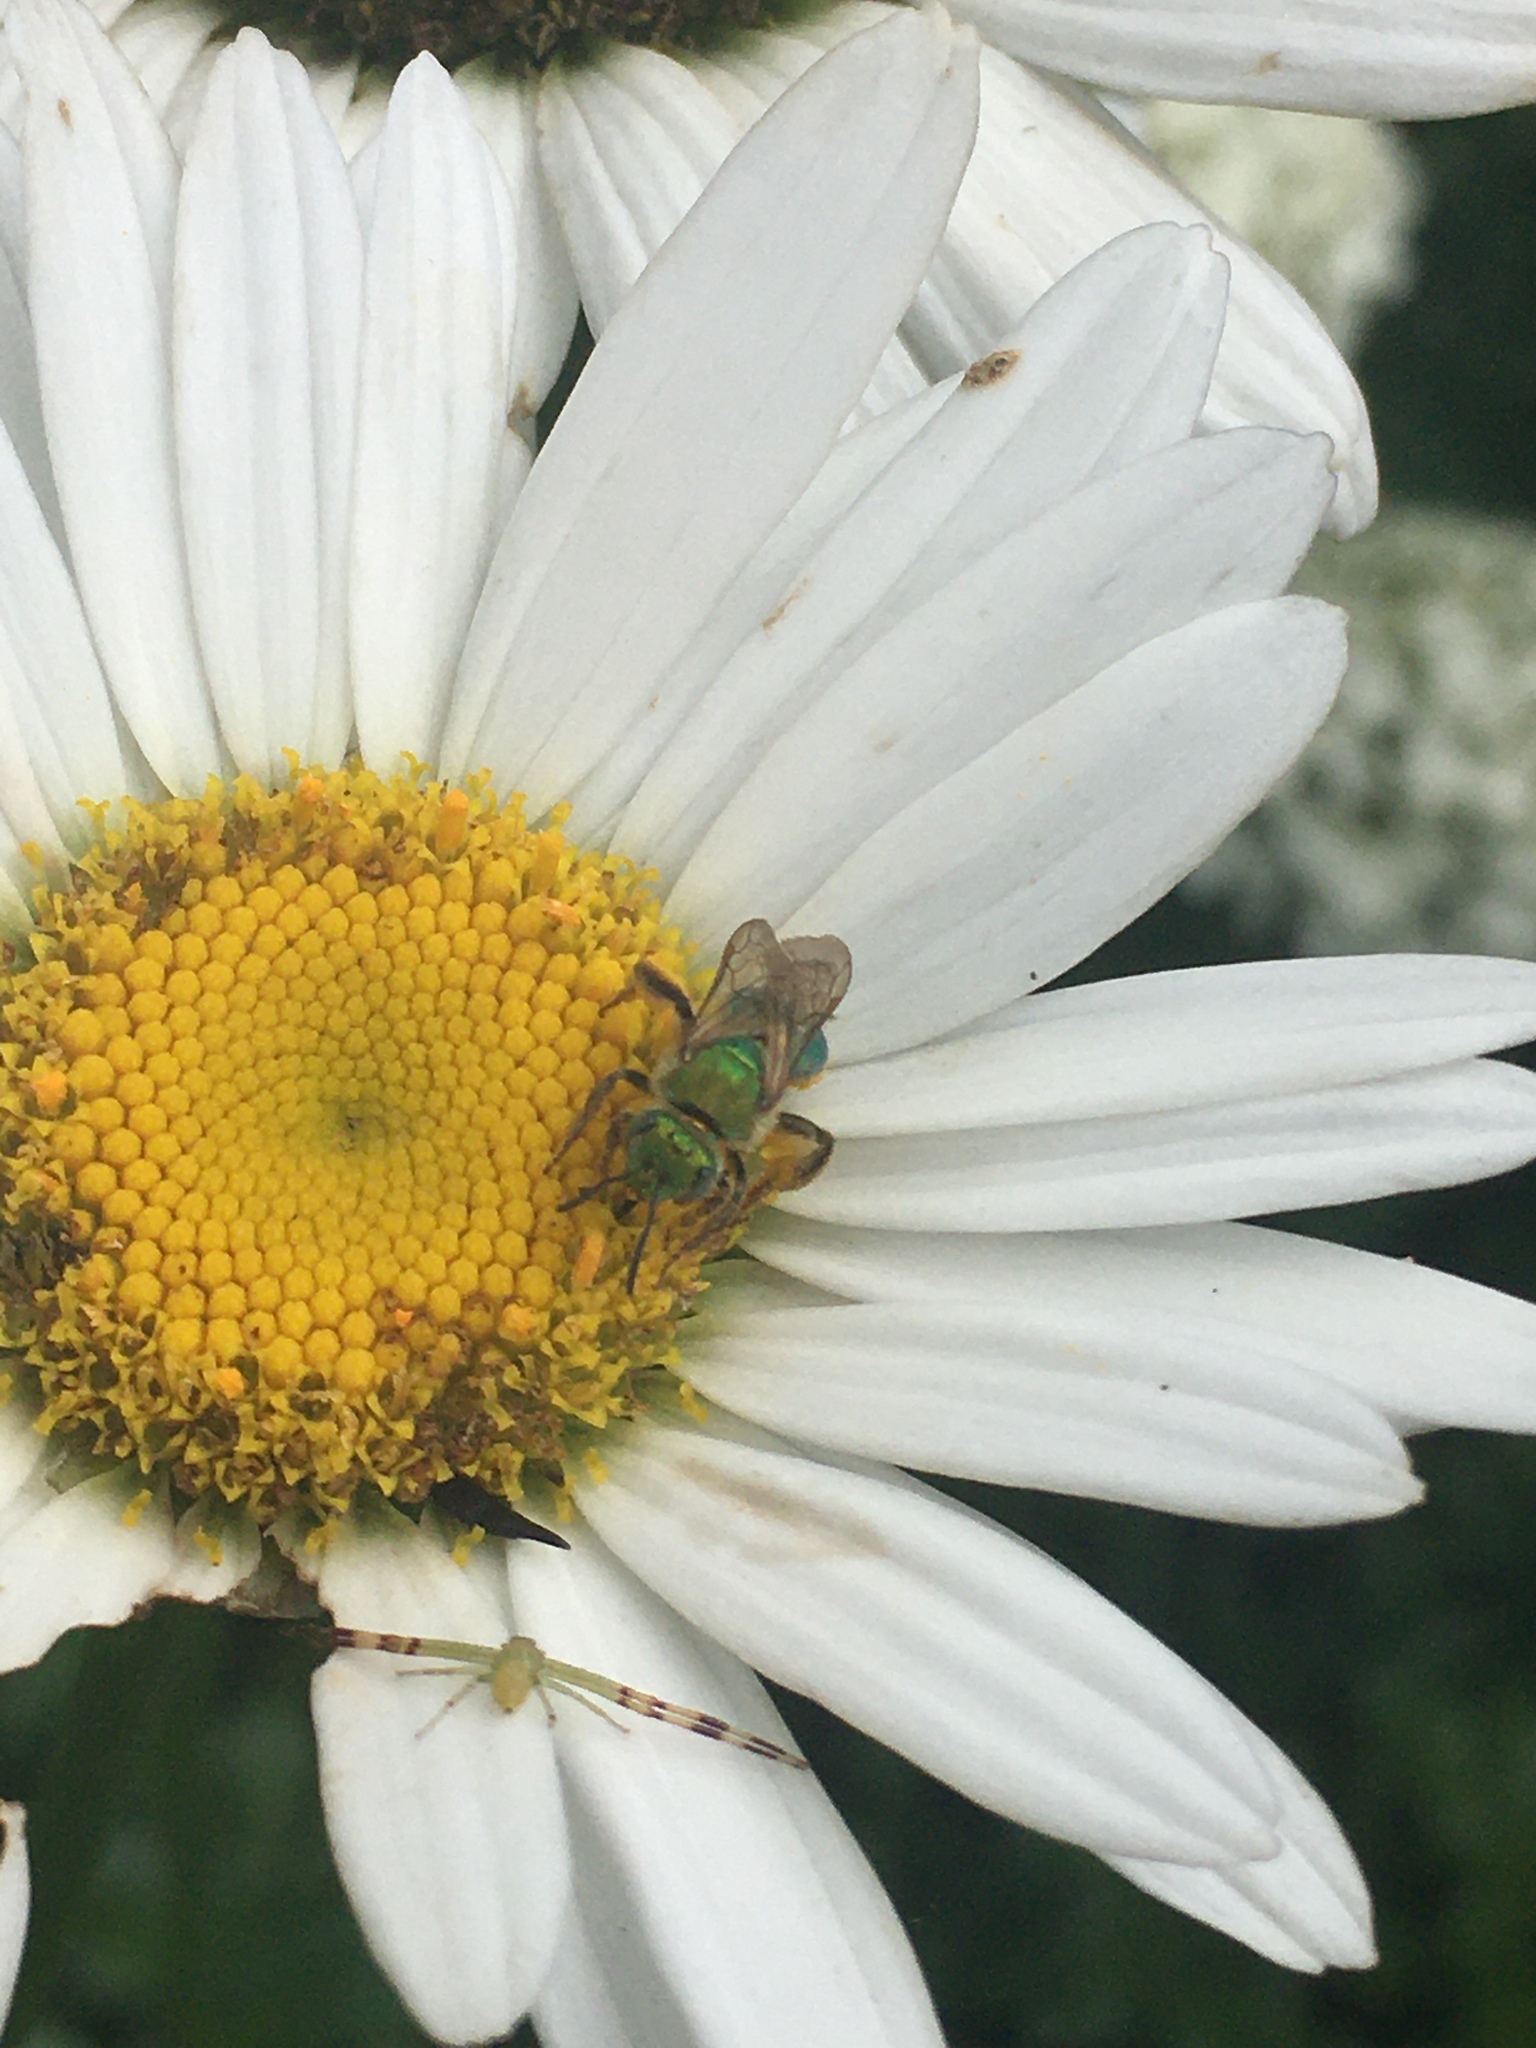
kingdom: Animalia
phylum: Arthropoda
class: Arachnida
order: Araneae
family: Thomisidae
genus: Misumessus
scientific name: Misumessus oblongus
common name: American green crab spider
